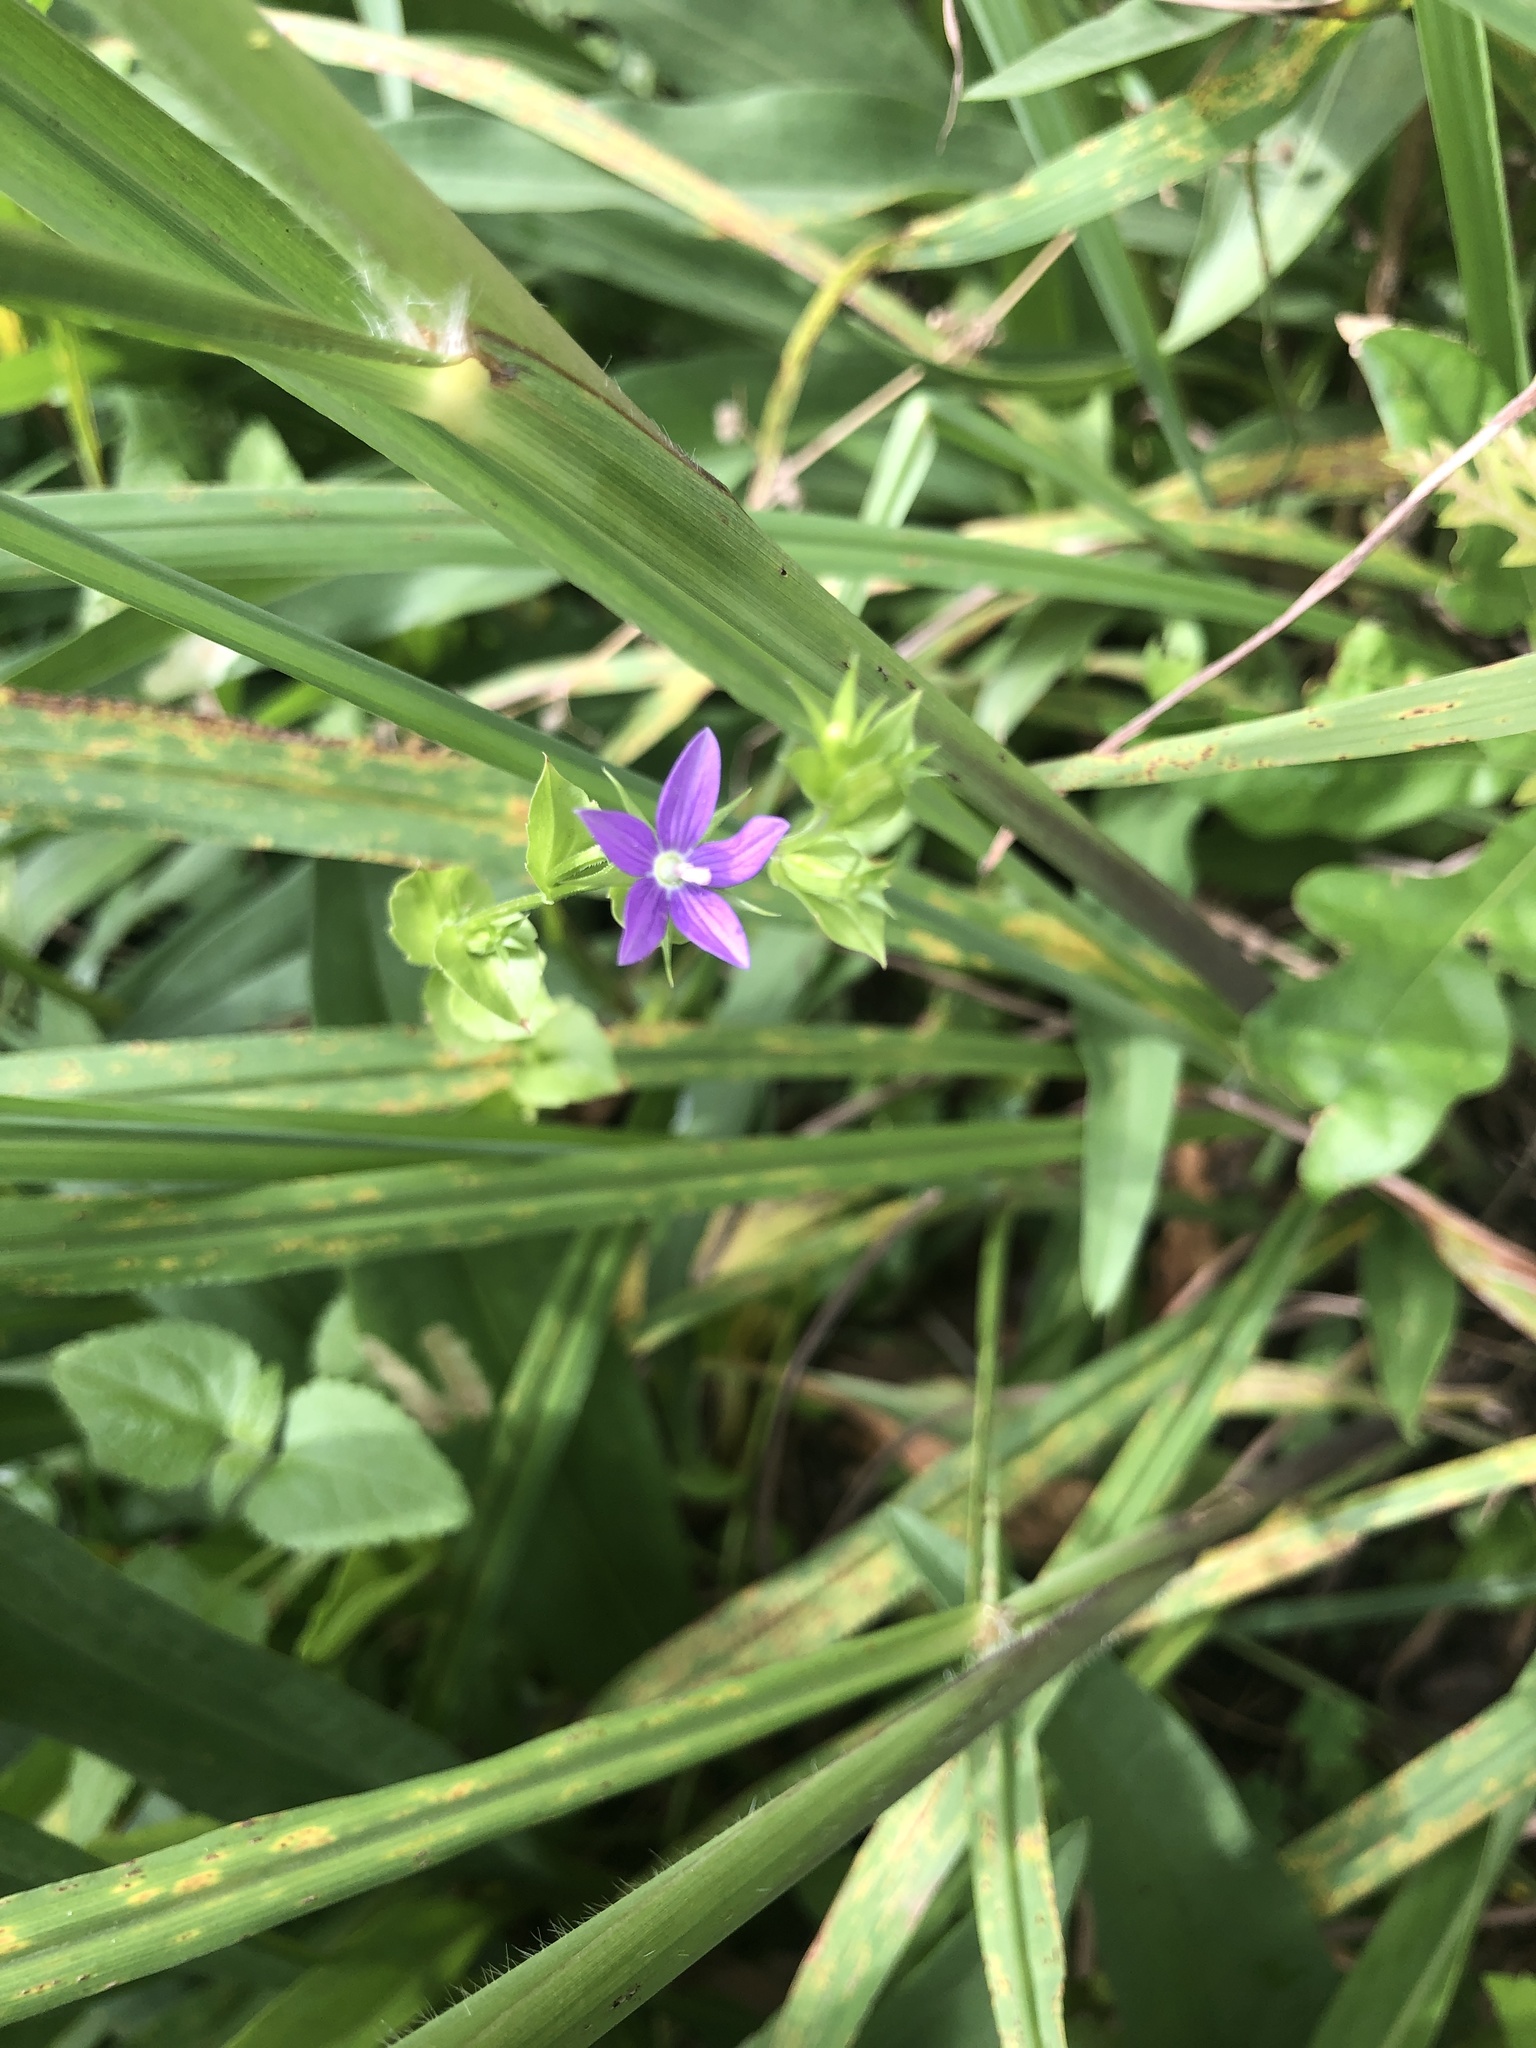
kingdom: Plantae
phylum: Tracheophyta
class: Magnoliopsida
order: Asterales
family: Campanulaceae
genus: Triodanis
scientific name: Triodanis perfoliata
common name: Clasping venus' looking-glass
